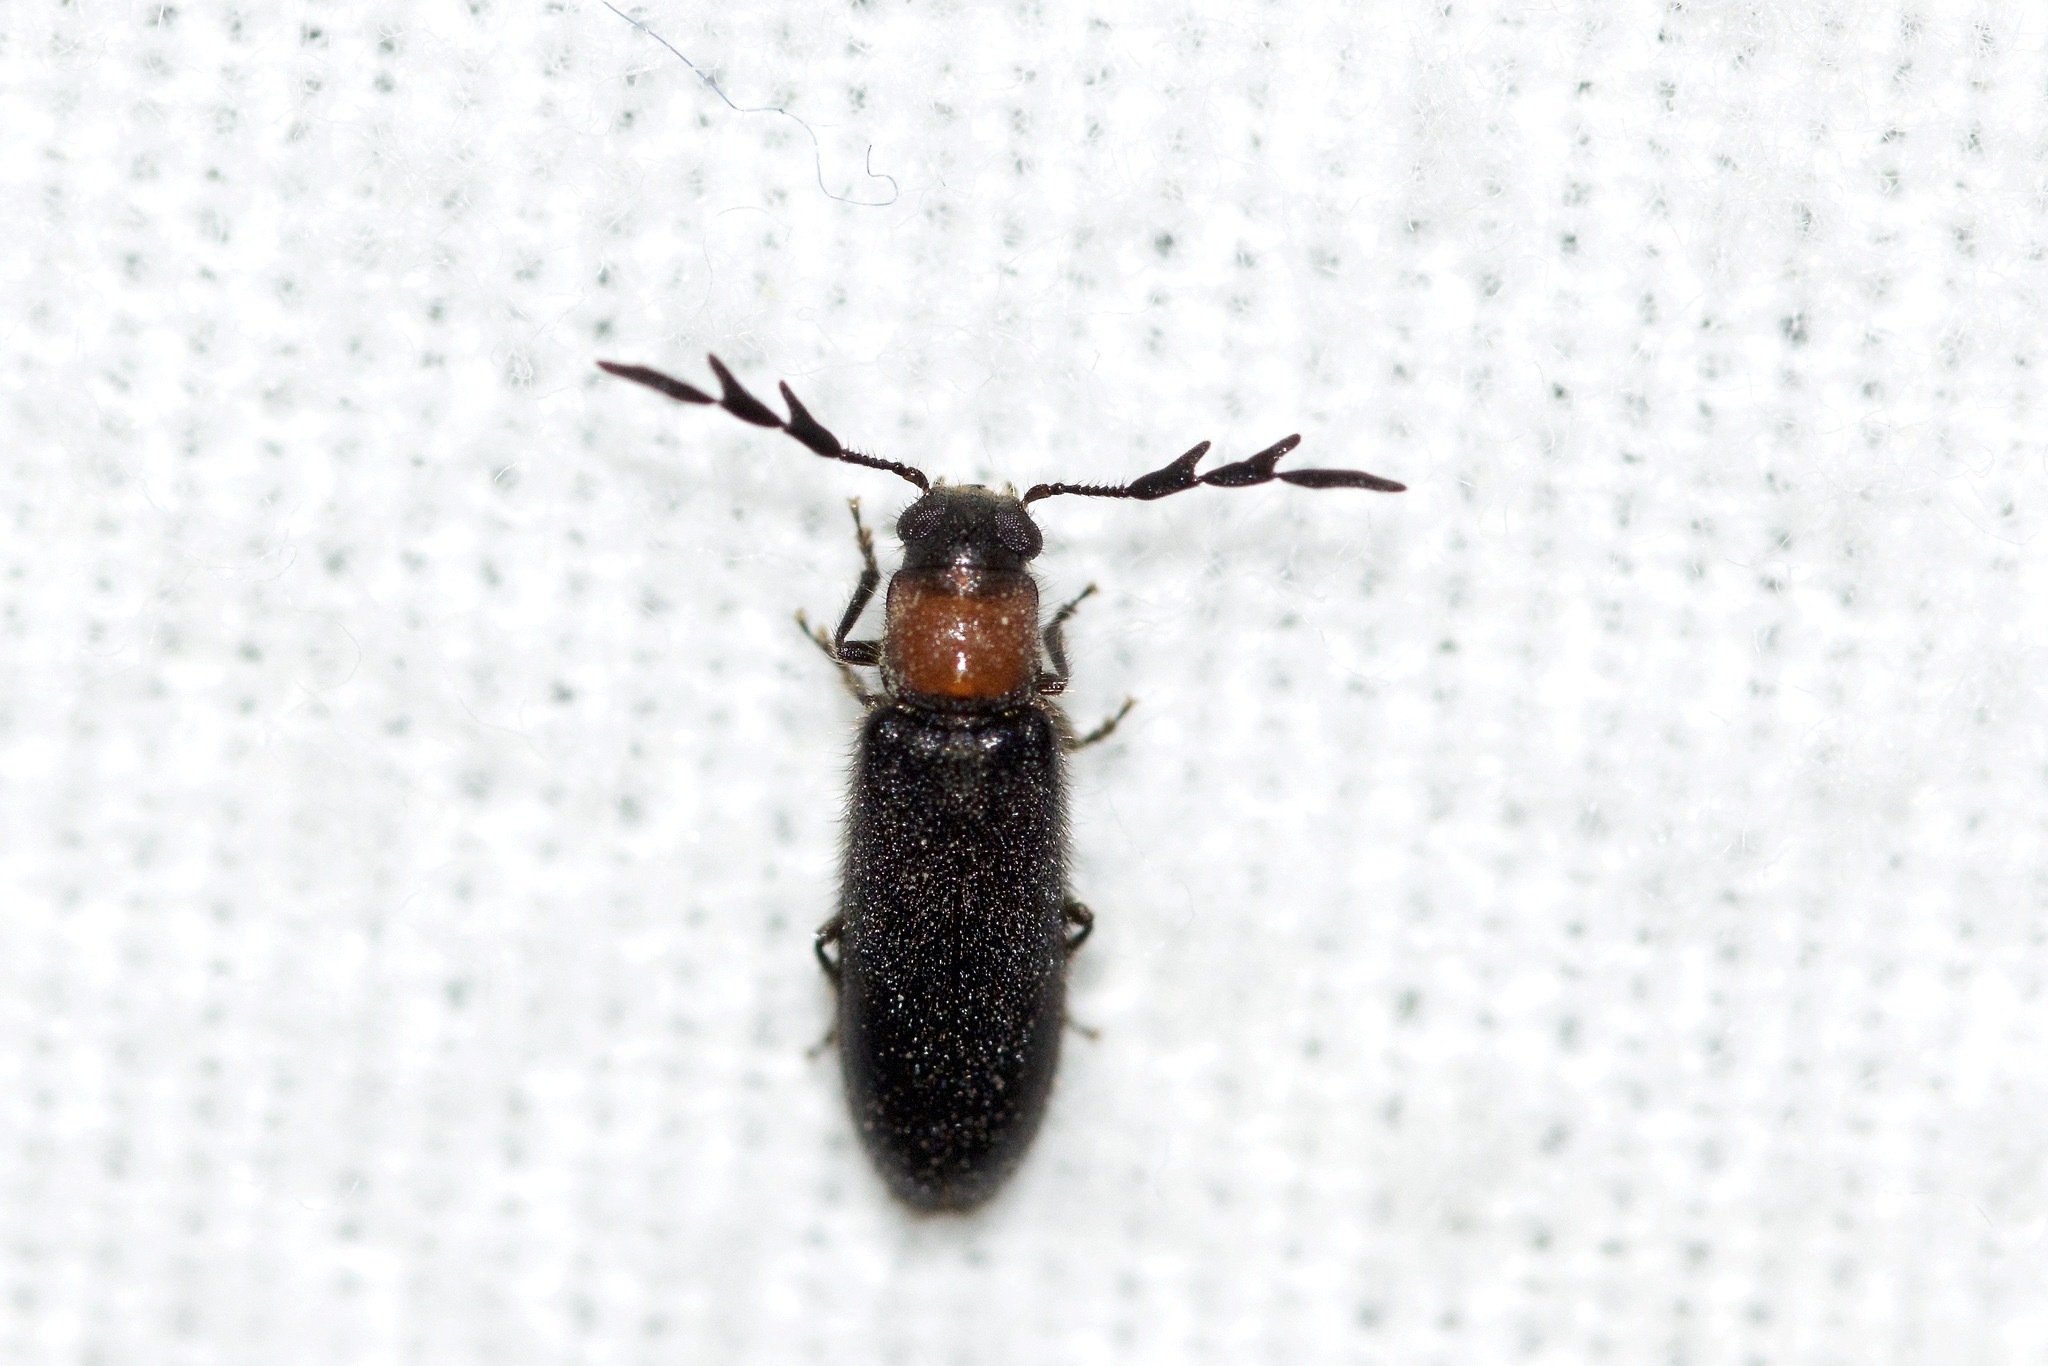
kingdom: Animalia
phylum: Arthropoda
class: Insecta
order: Coleoptera
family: Cleridae
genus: Neorthopleura
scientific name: Neorthopleura thoracica
